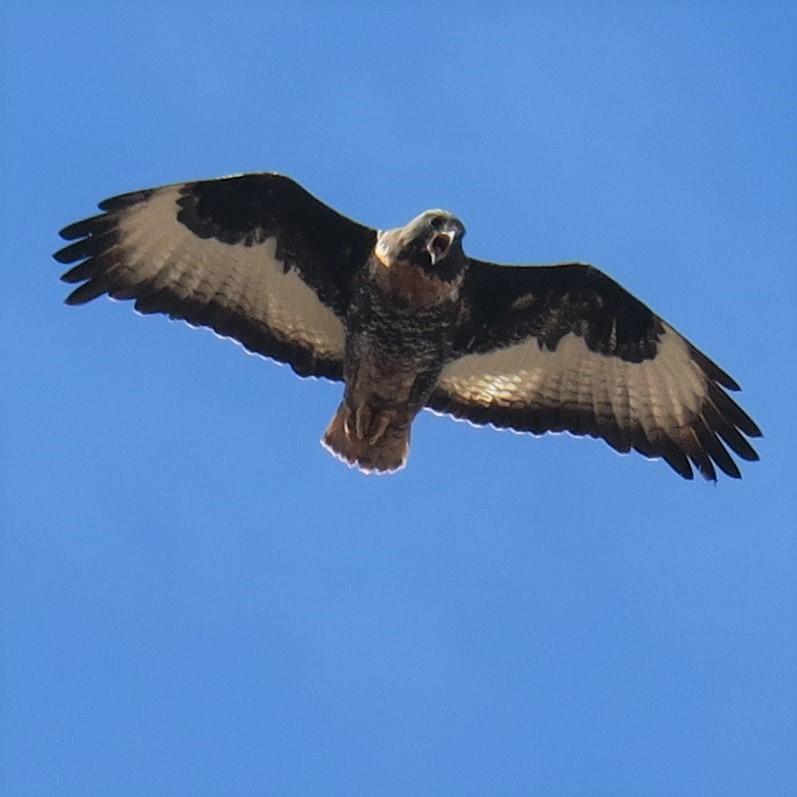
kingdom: Animalia
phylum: Chordata
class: Aves
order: Accipitriformes
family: Accipitridae
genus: Buteo
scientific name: Buteo rufofuscus
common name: Jackal buzzard
